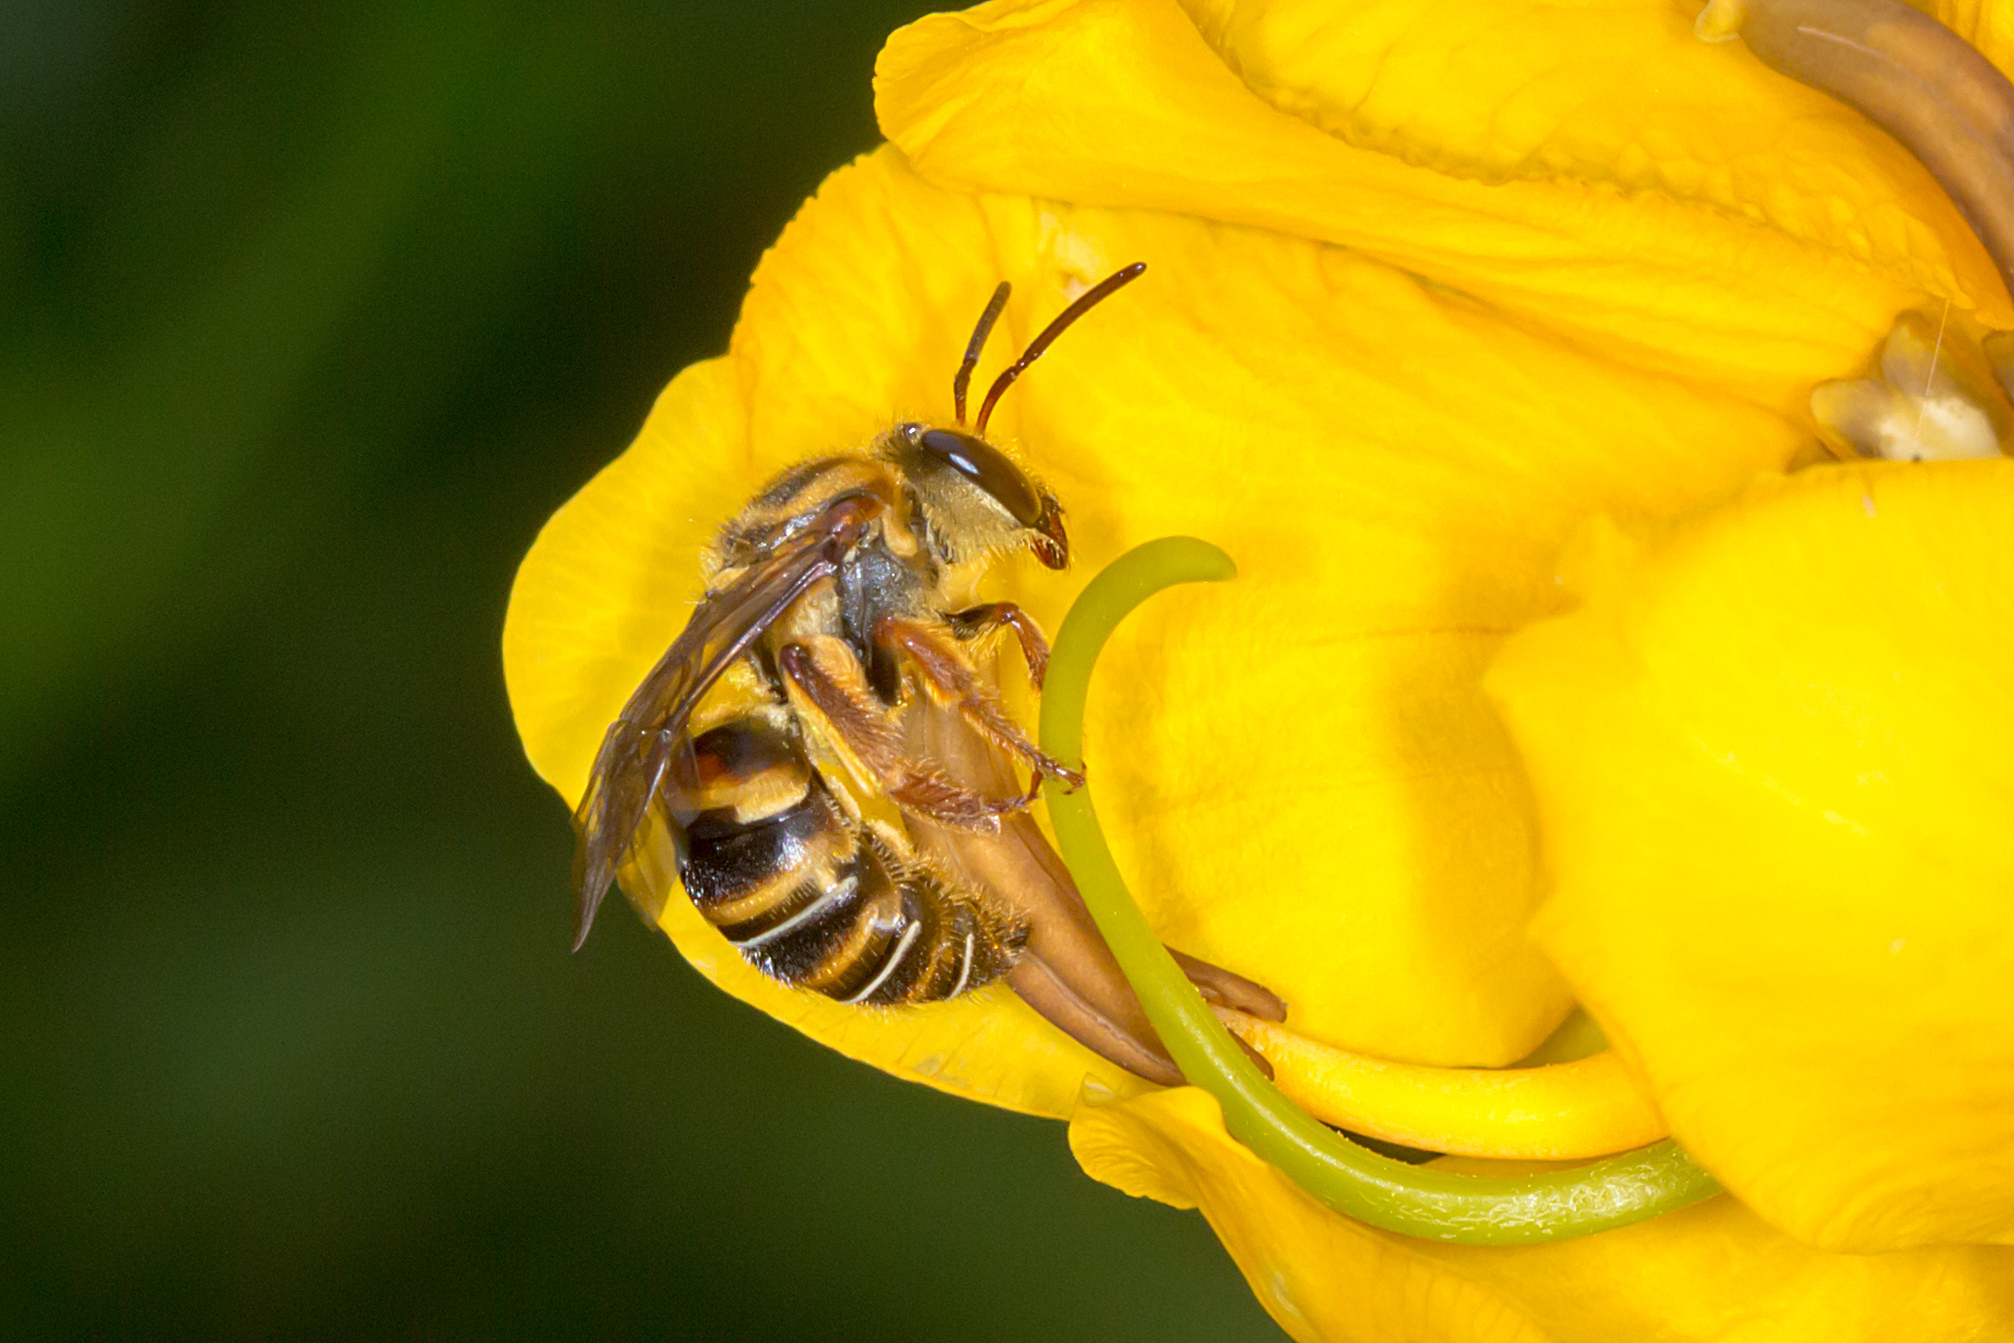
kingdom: Animalia
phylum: Arthropoda
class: Insecta
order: Hymenoptera
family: Halictidae
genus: Mellitidia
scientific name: Mellitidia tomentifera
